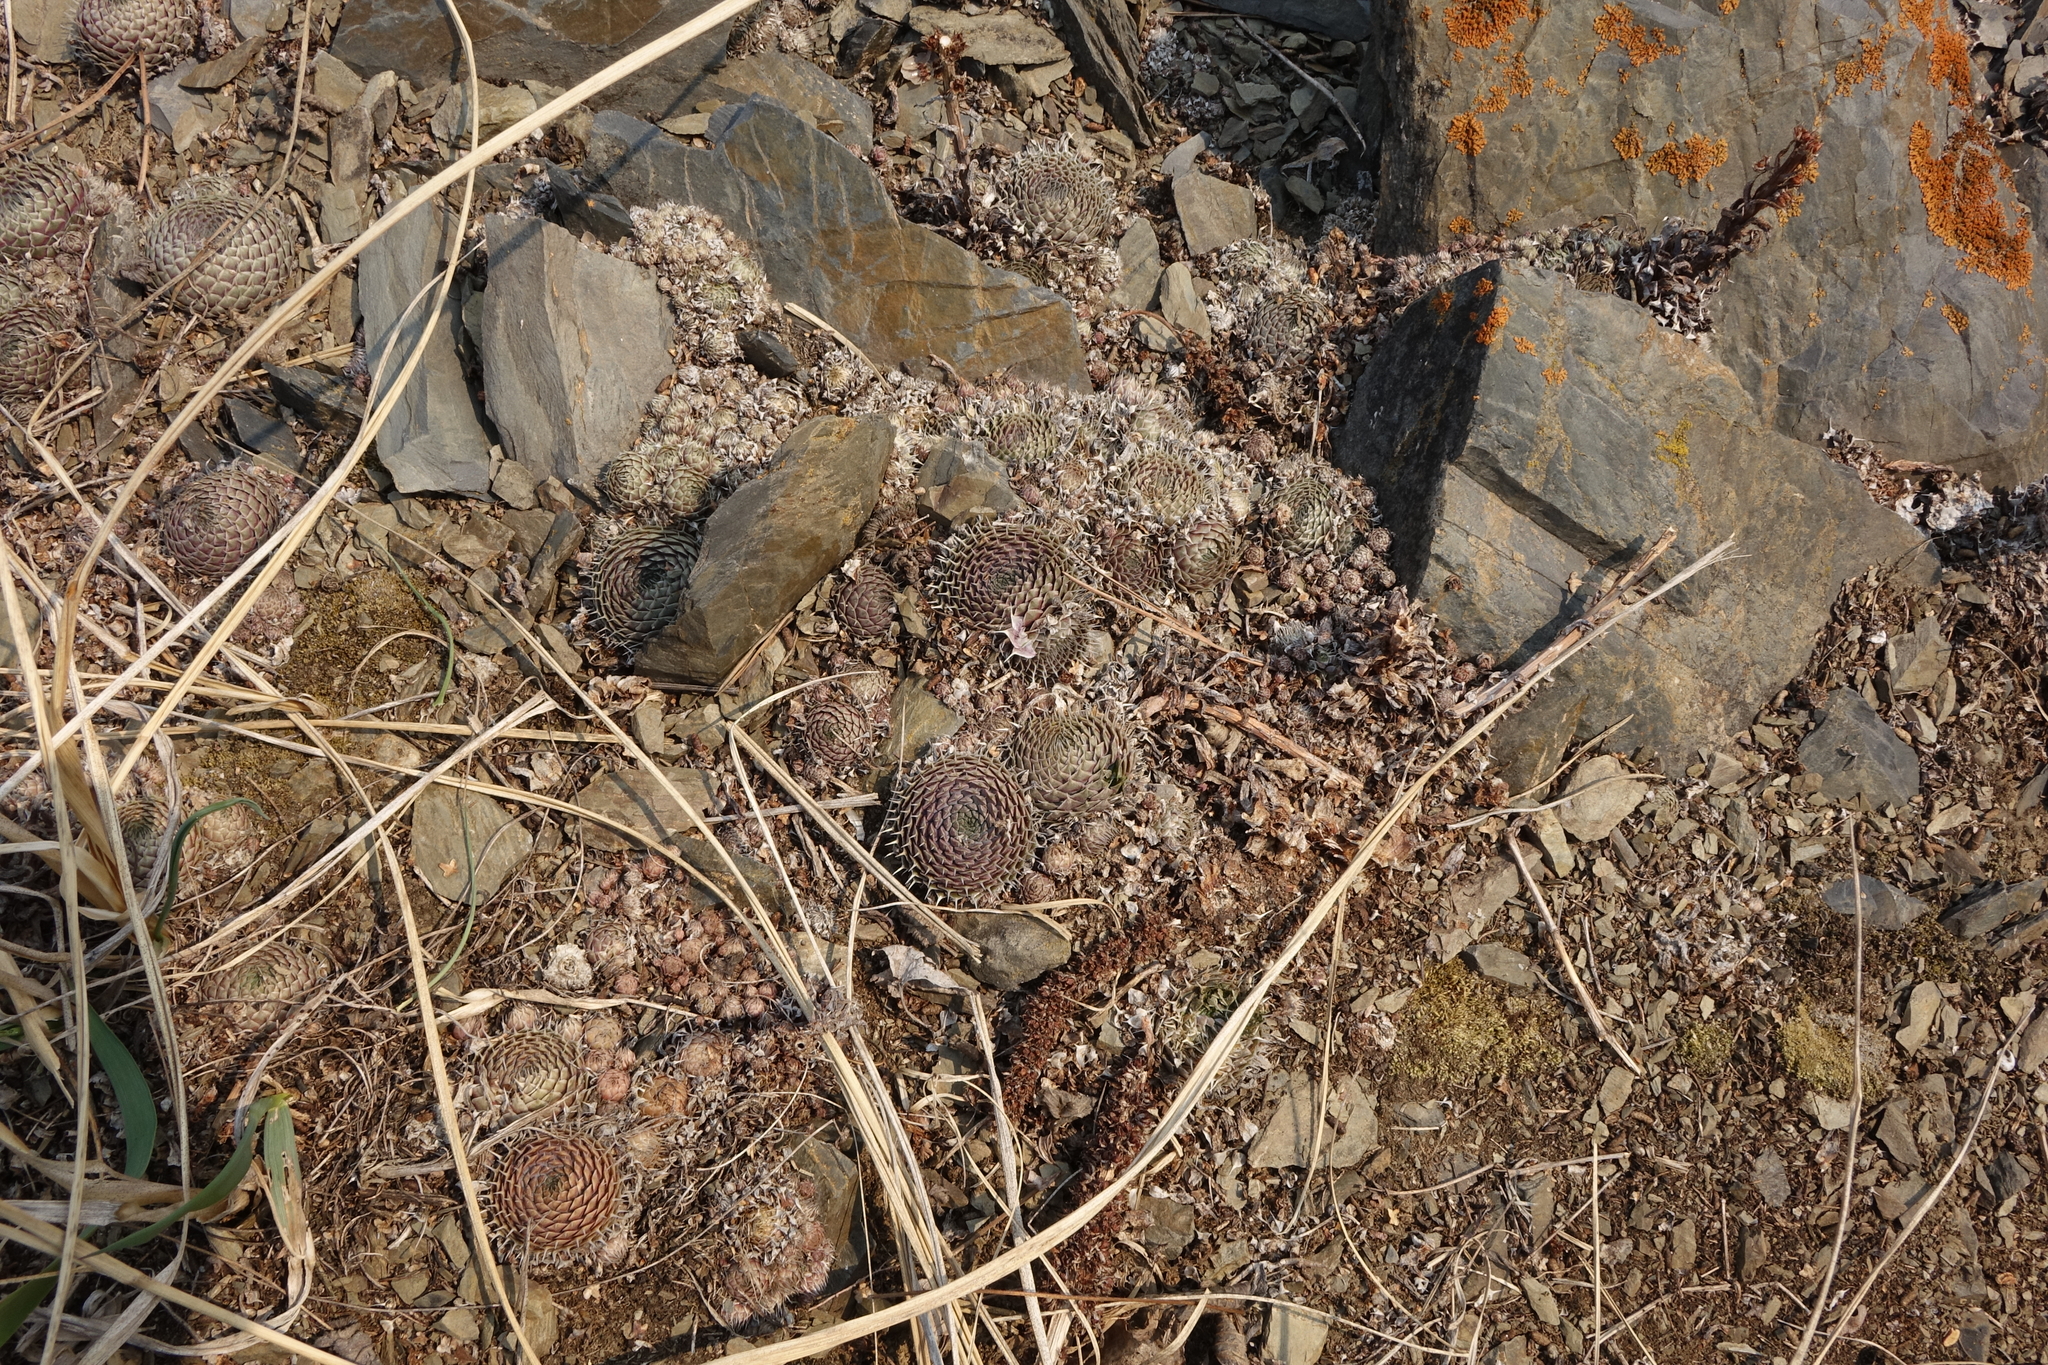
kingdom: Plantae
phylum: Tracheophyta
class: Magnoliopsida
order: Saxifragales
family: Crassulaceae
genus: Orostachys
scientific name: Orostachys spinosa
